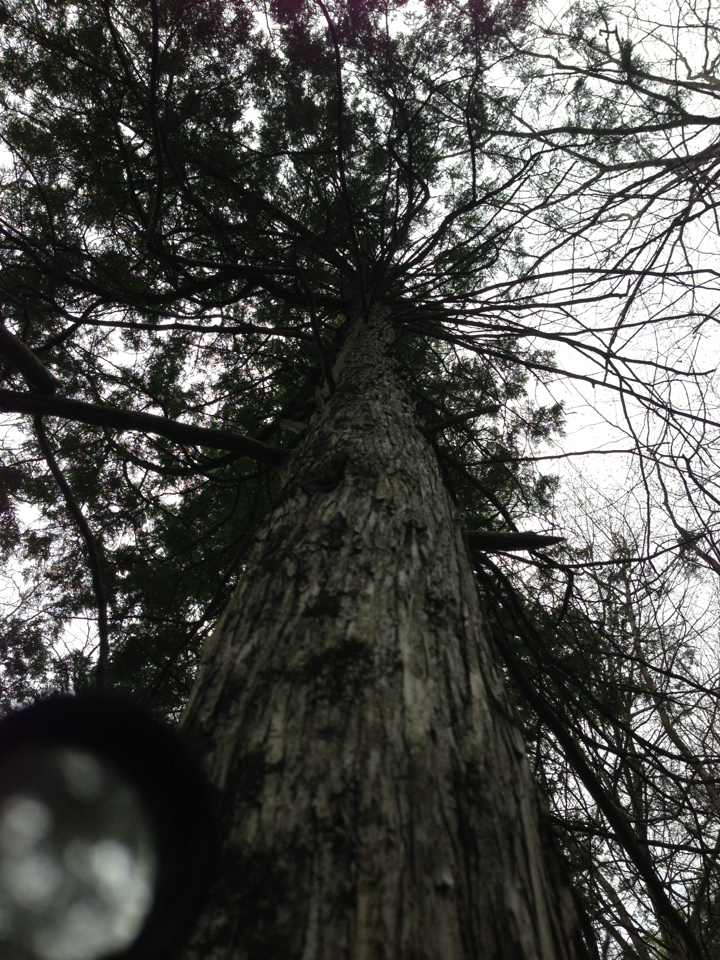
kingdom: Plantae
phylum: Tracheophyta
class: Pinopsida
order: Pinales
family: Cupressaceae
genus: Thuja
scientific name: Thuja occidentalis
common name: Northern white-cedar
